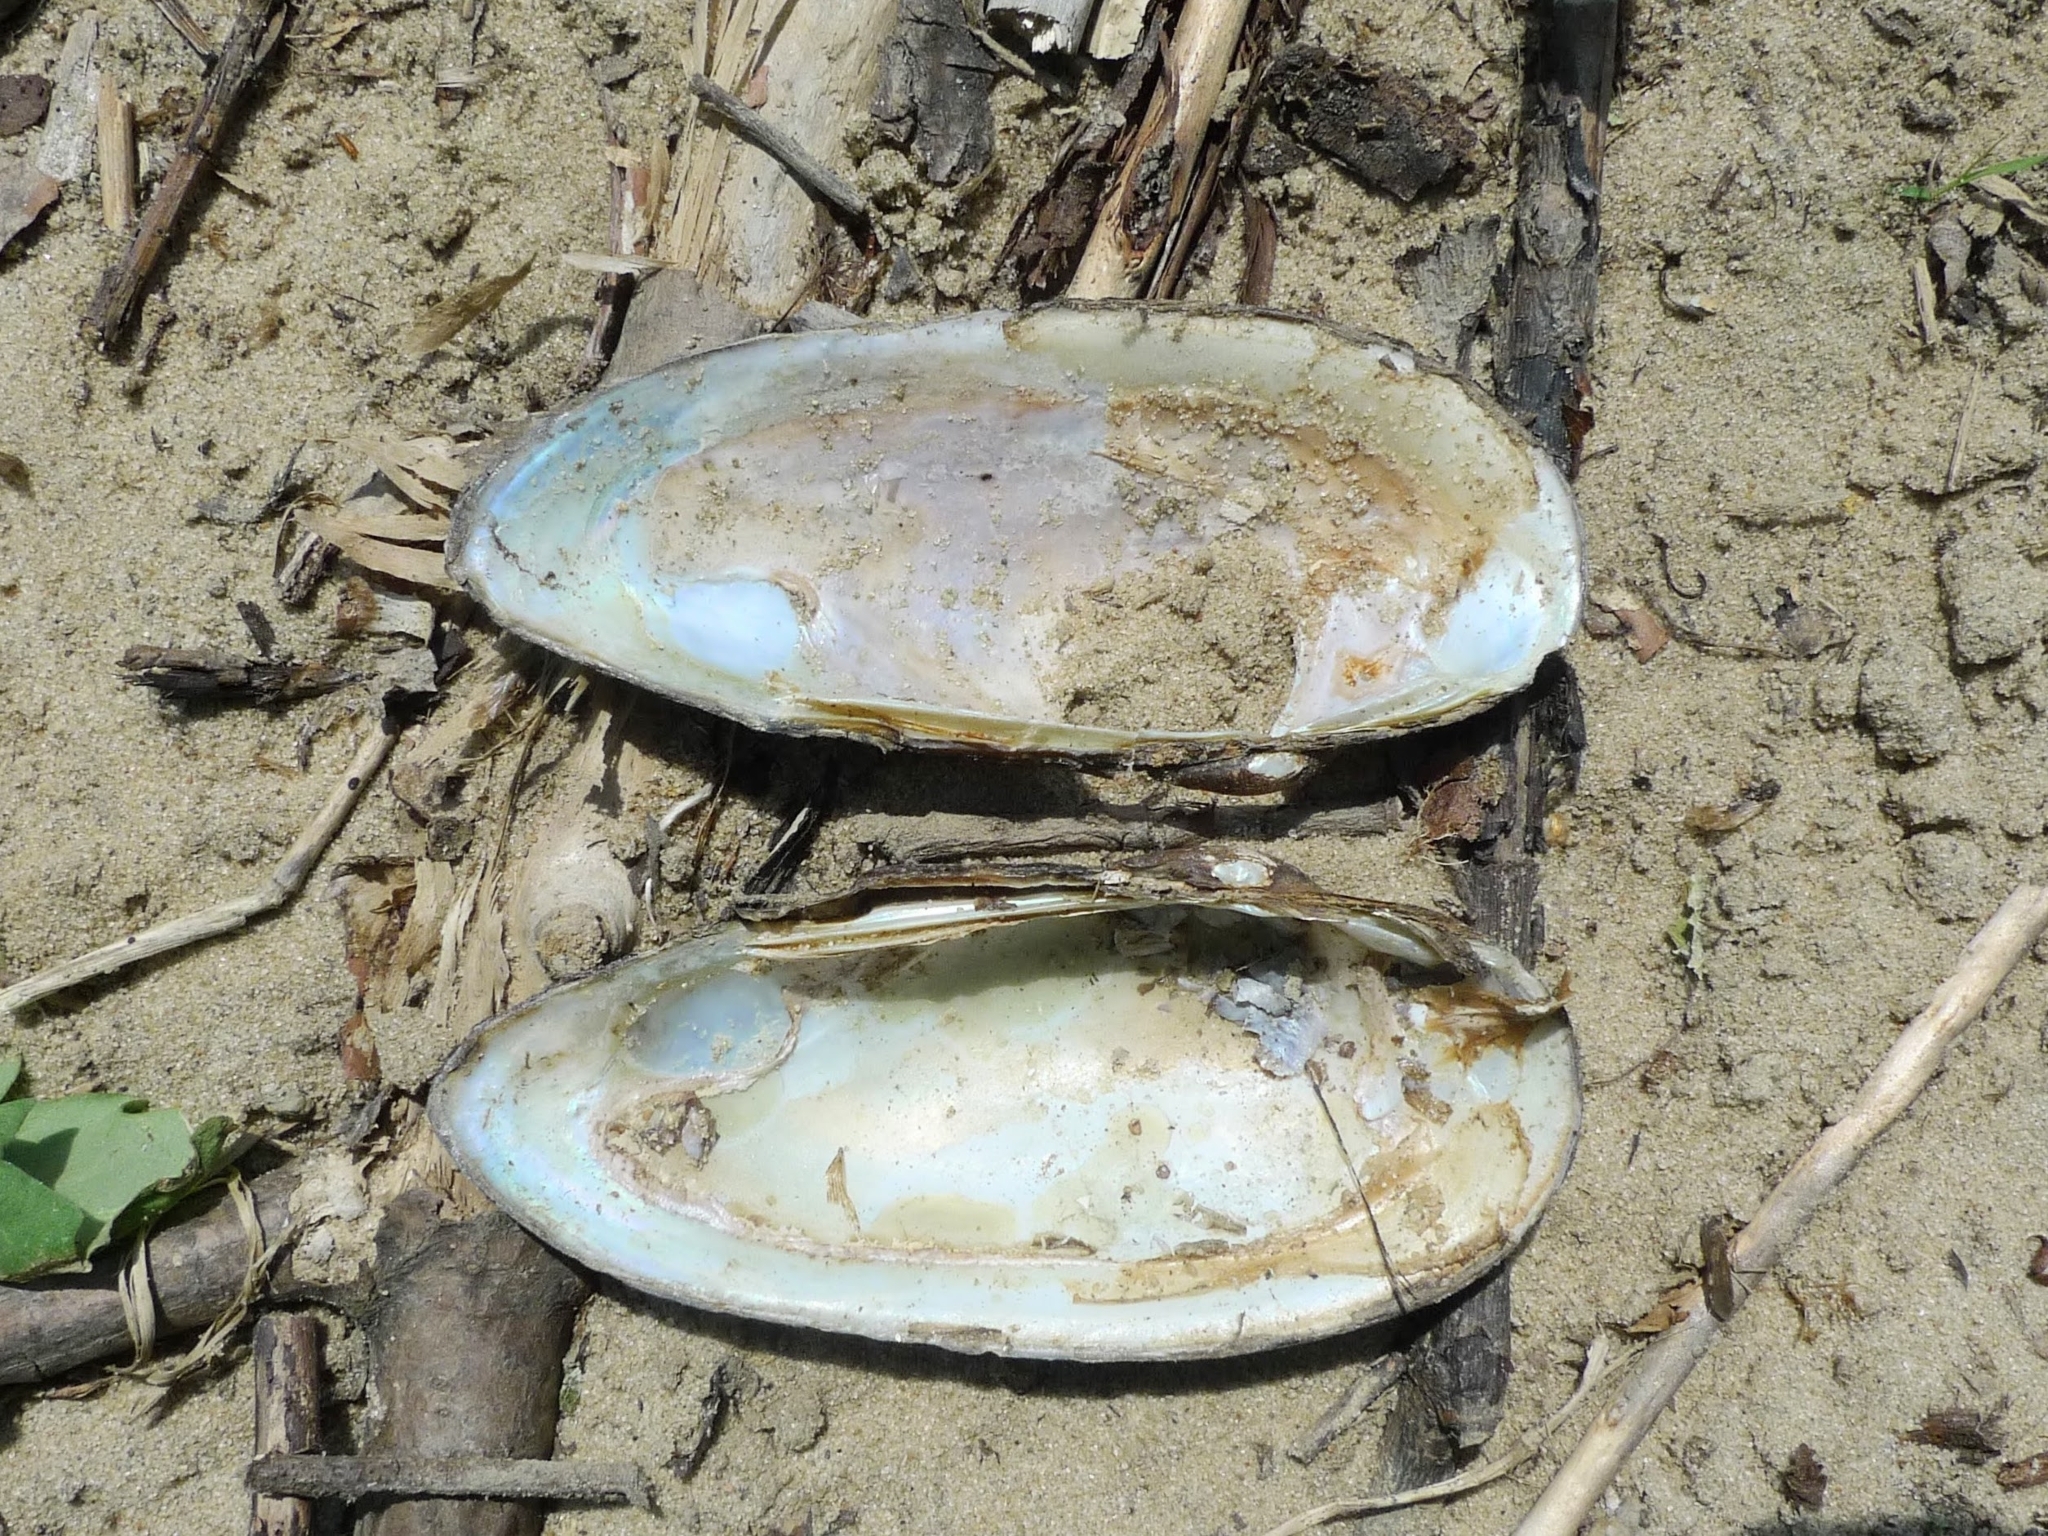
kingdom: Animalia
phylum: Mollusca
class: Bivalvia
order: Unionida
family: Unionidae
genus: Unio
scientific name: Unio pictorum
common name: Painter's mussel
